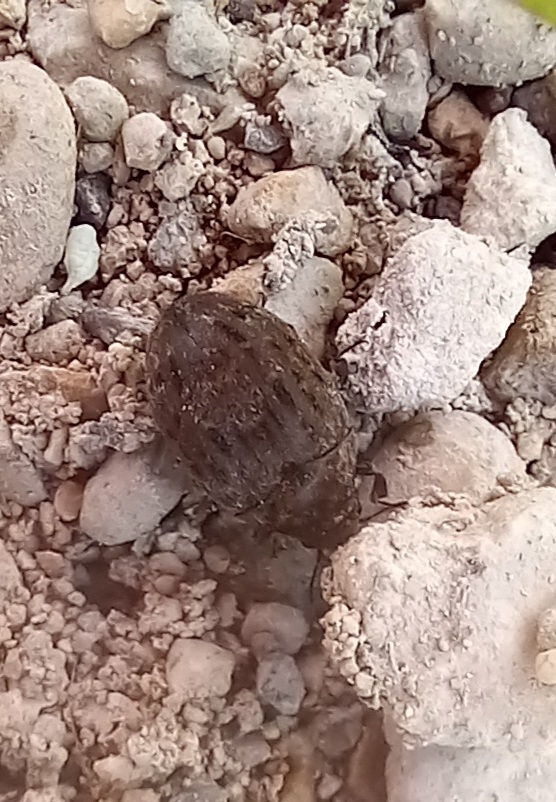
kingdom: Animalia
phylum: Arthropoda
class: Insecta
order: Coleoptera
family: Byrrhidae
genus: Byrrhus
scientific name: Byrrhus pilula
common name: Pill beetle
